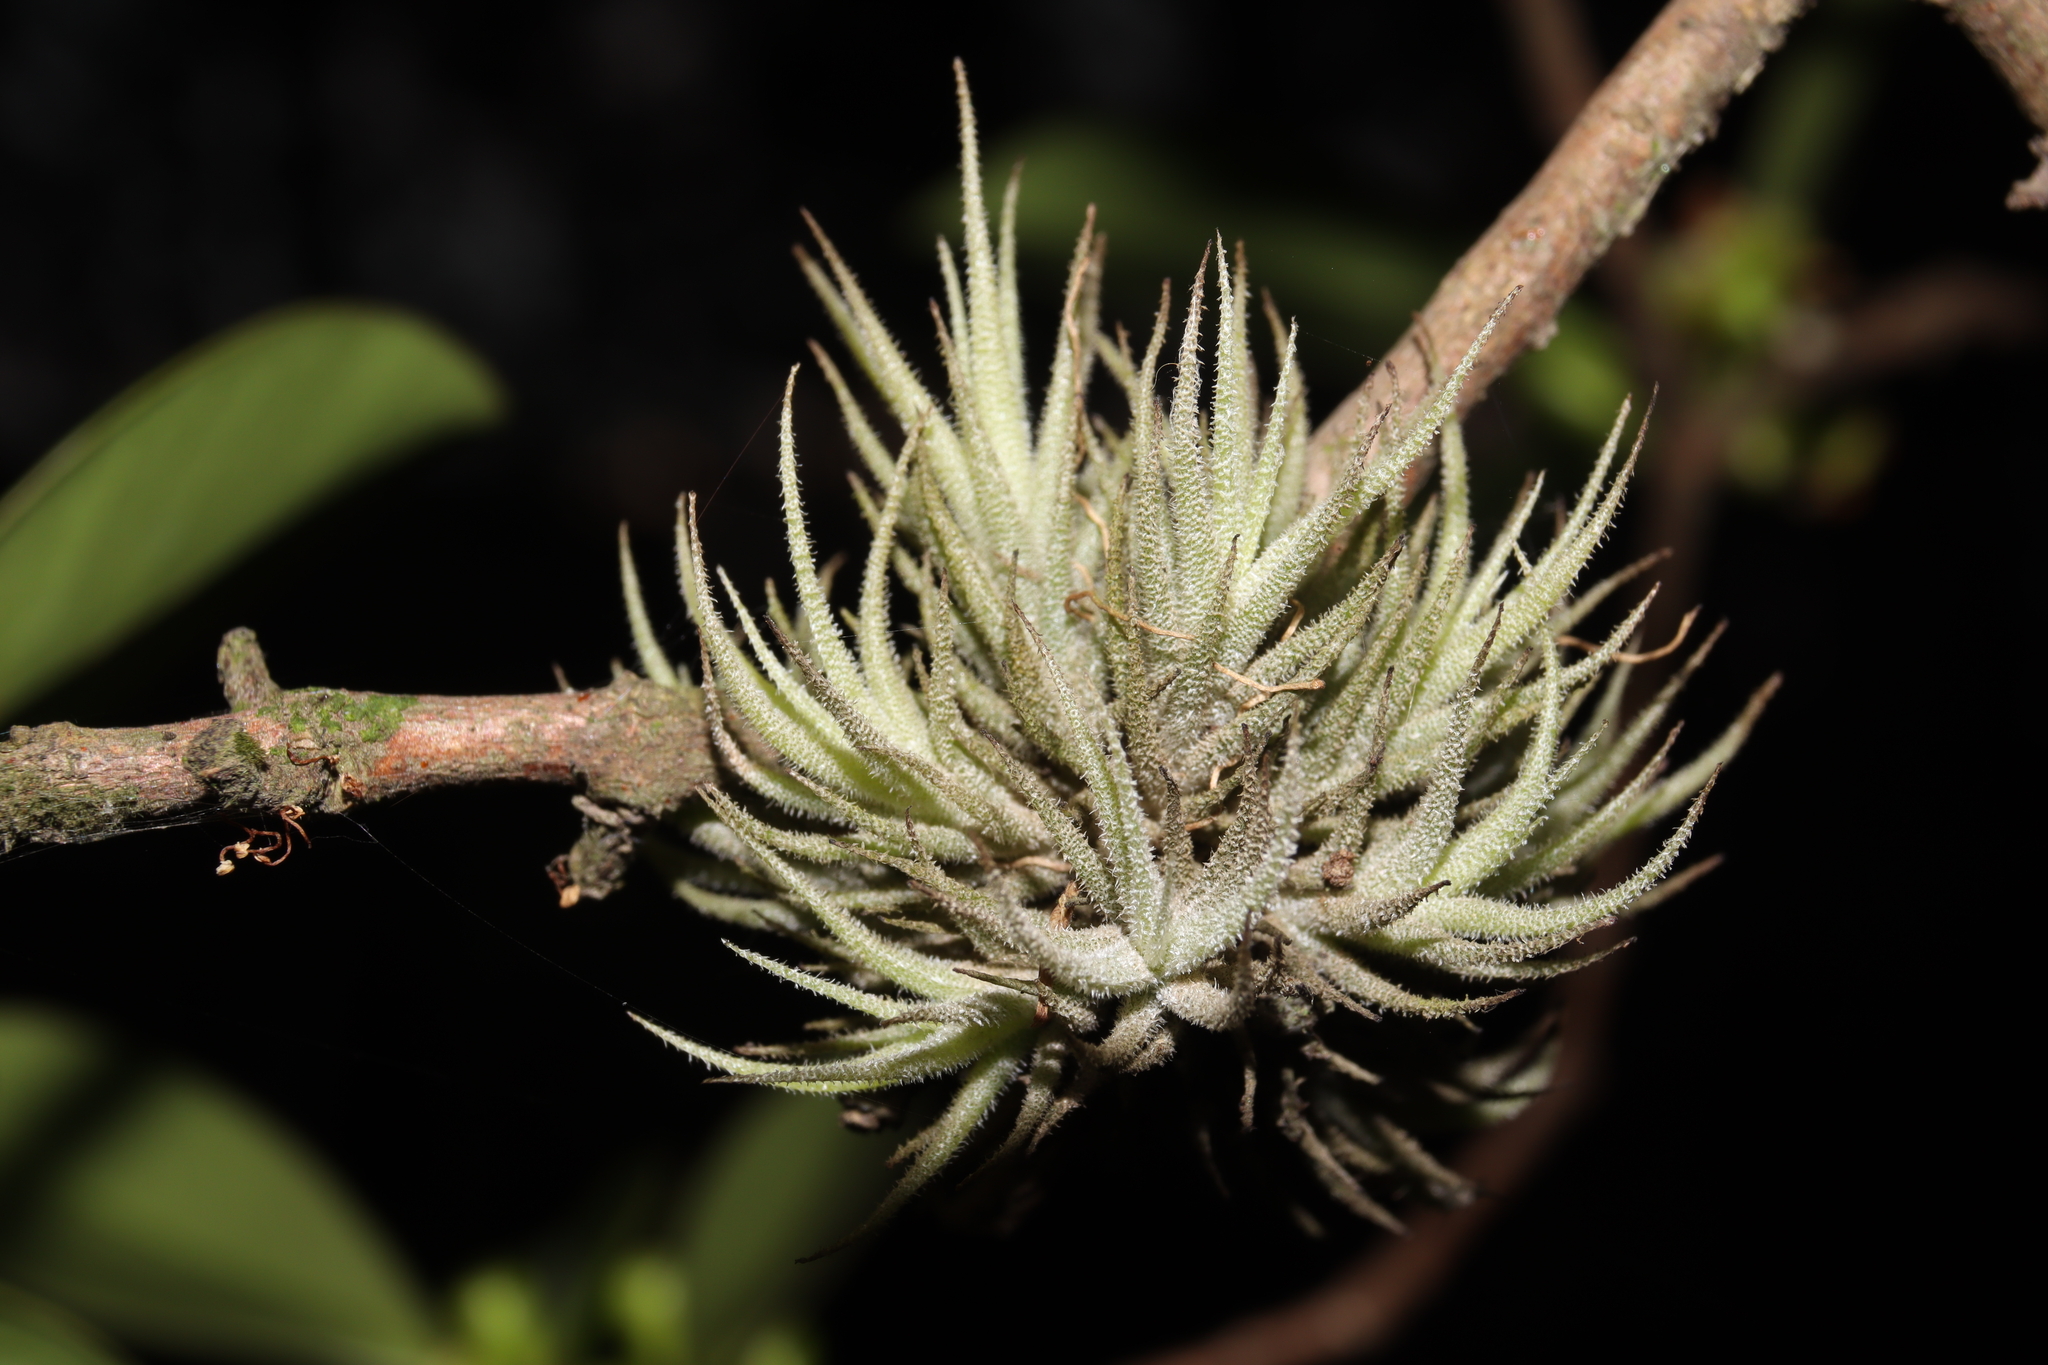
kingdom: Plantae
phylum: Tracheophyta
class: Liliopsida
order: Poales
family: Bromeliaceae
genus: Tillandsia
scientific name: Tillandsia tricholepis
